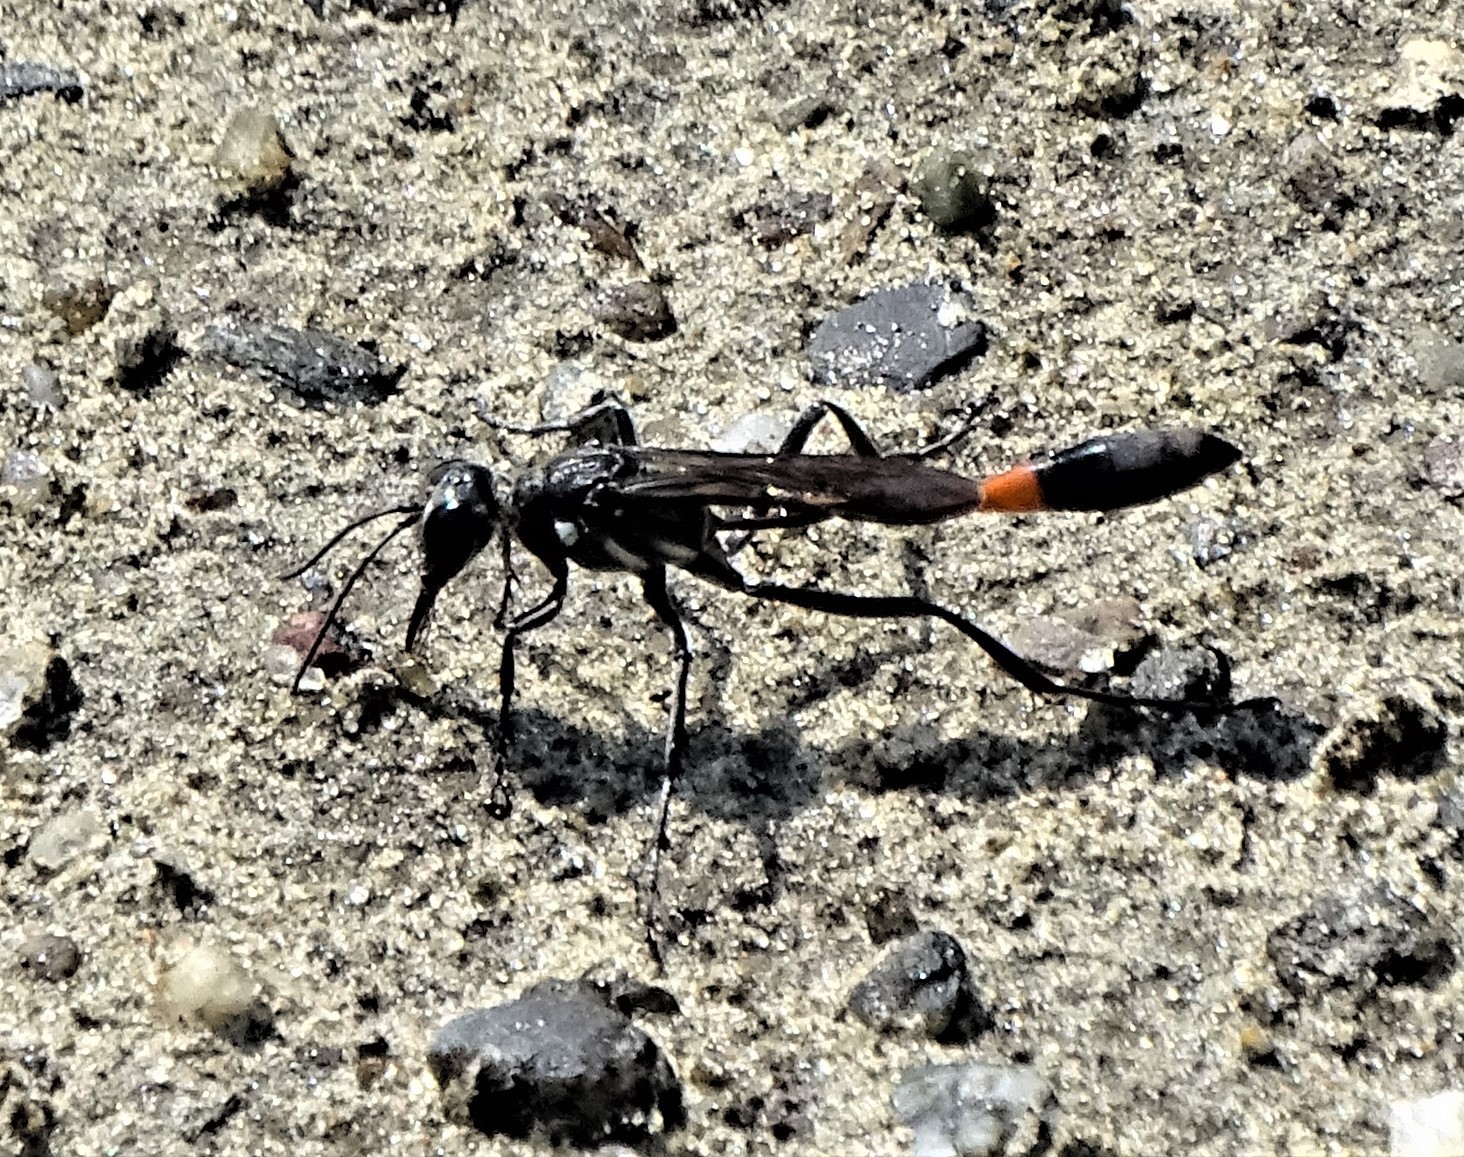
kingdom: Animalia
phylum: Arthropoda
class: Insecta
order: Hymenoptera
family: Sphecidae
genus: Ammophila
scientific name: Ammophila procera
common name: Common thread-waisted wasp
